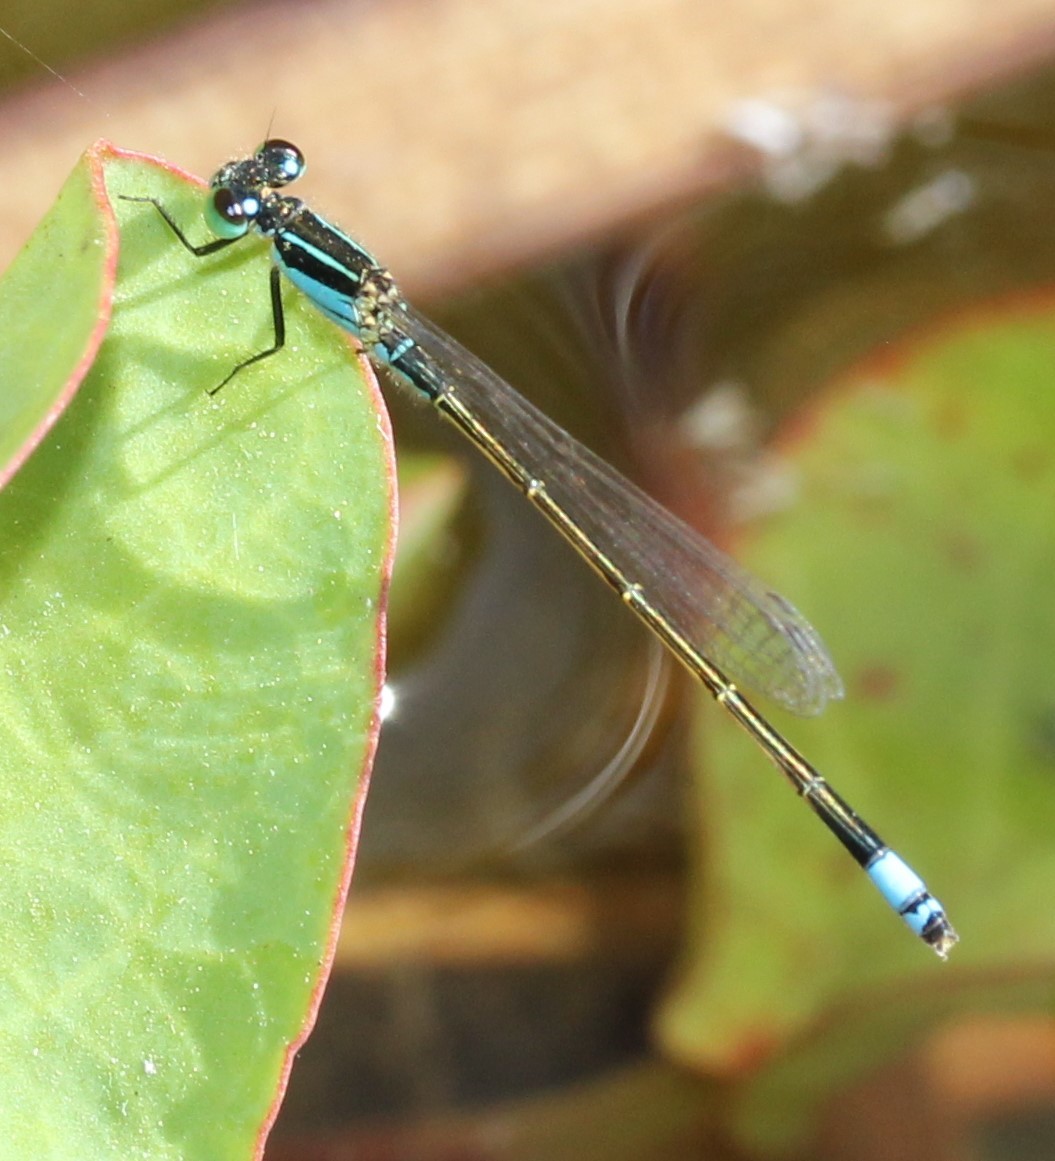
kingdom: Animalia
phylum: Arthropoda
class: Insecta
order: Odonata
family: Coenagrionidae
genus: Ischnura
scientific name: Ischnura ramburii
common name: Rambur's forktail
